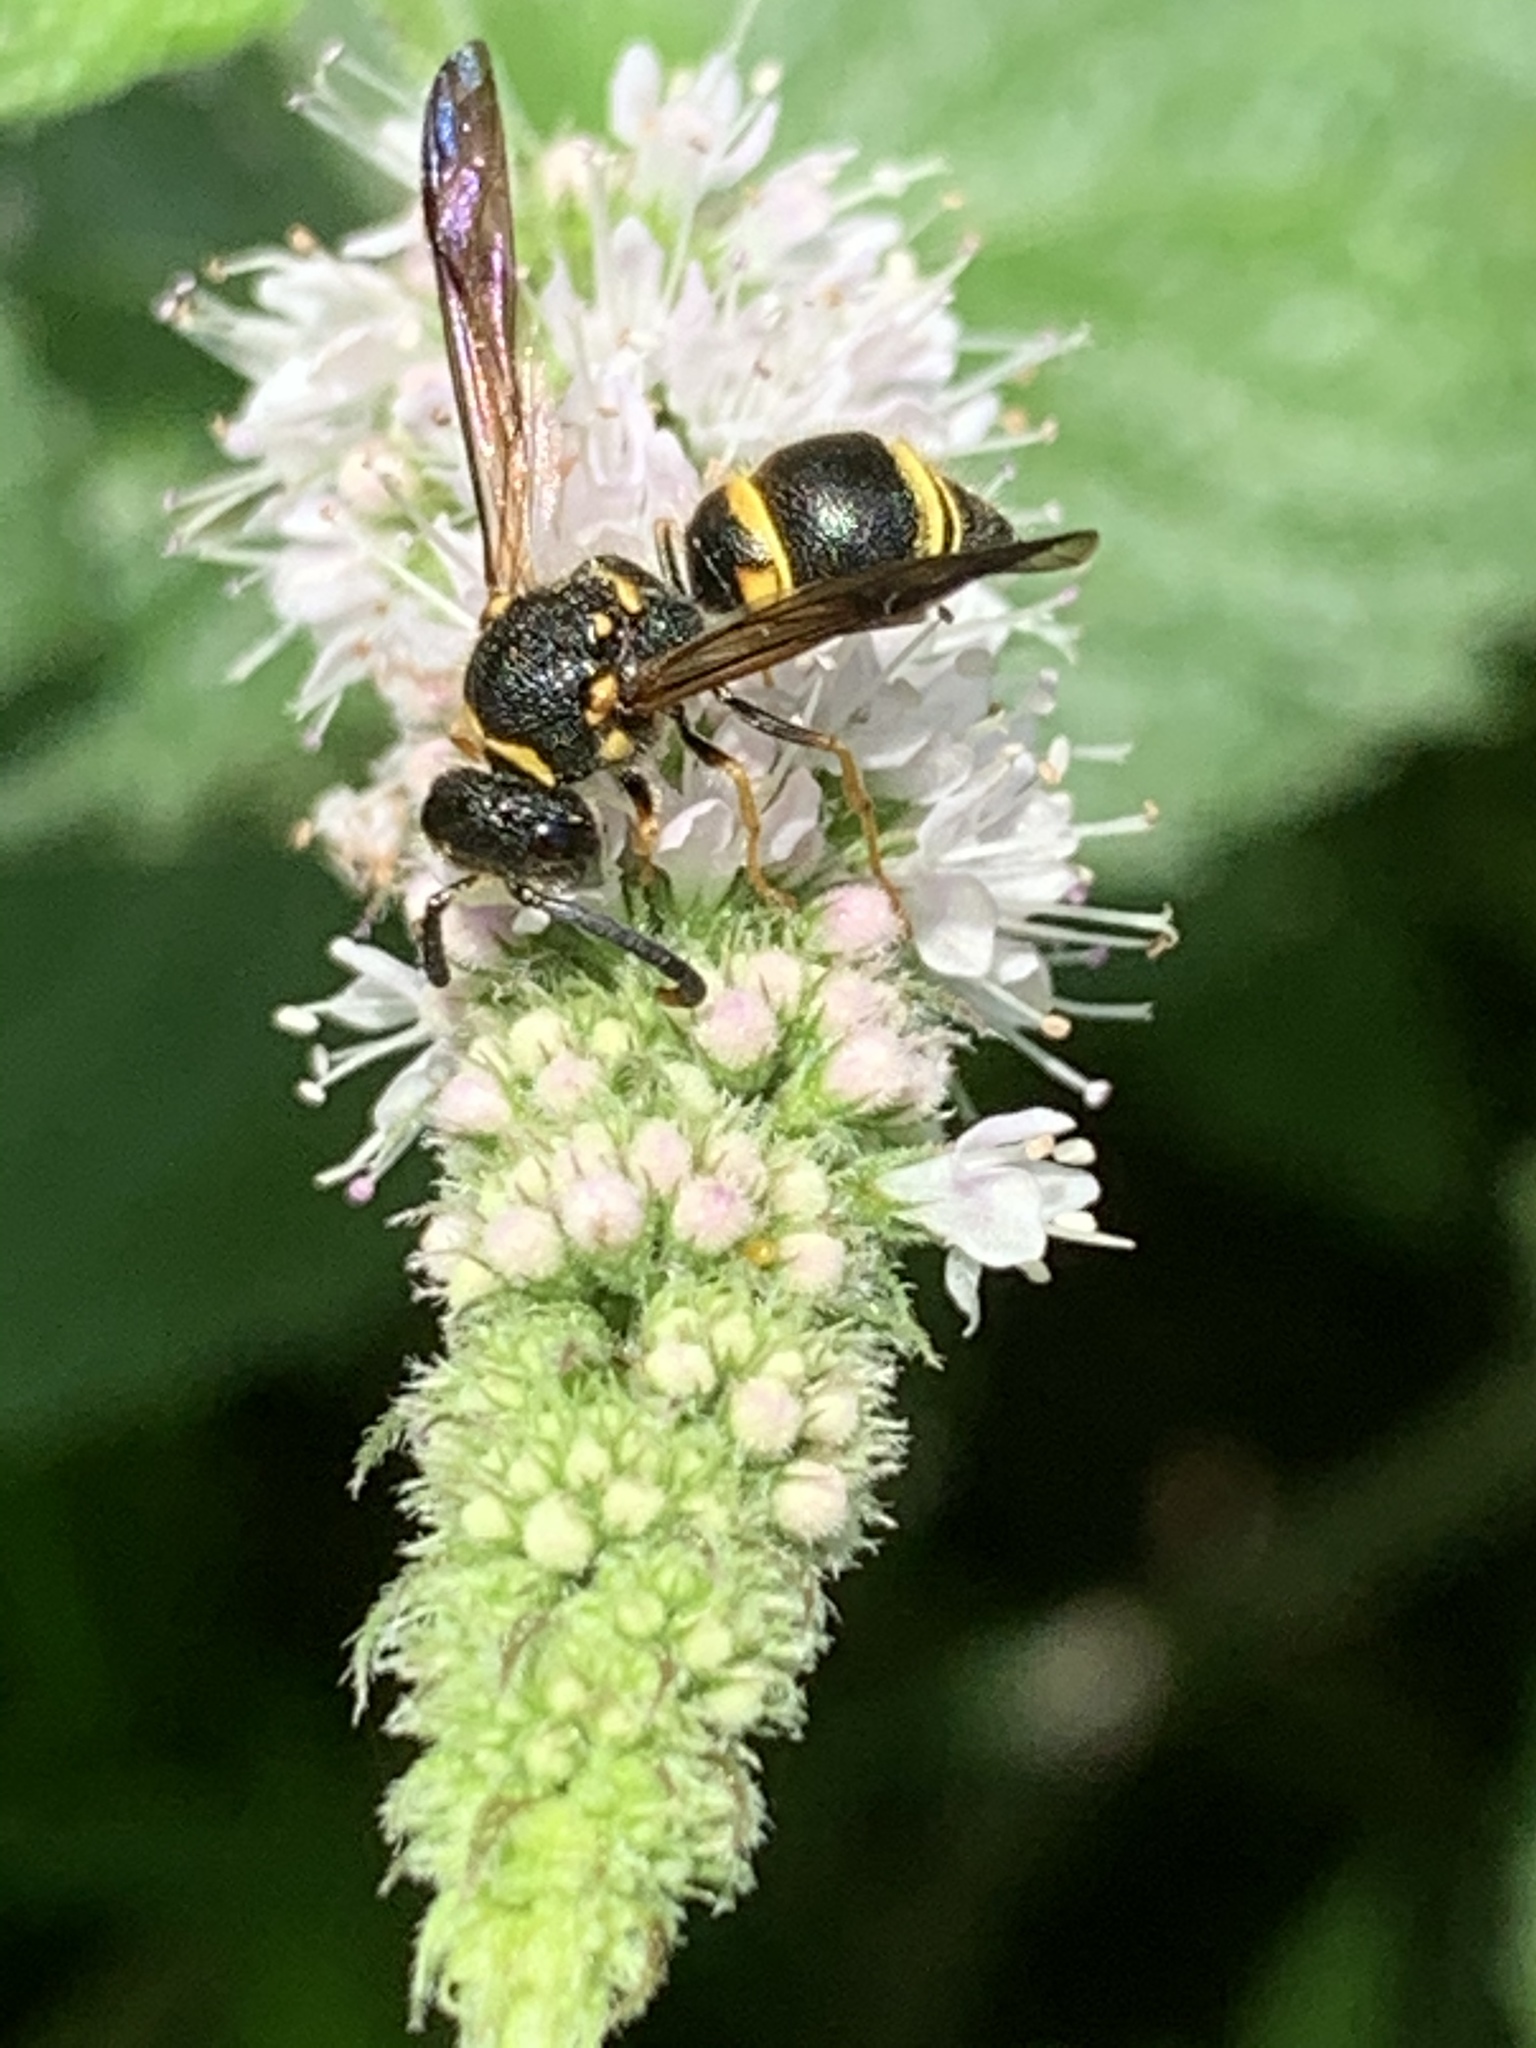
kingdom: Animalia
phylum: Arthropoda
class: Insecta
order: Hymenoptera
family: Vespidae
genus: Ancistrocerus
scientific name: Ancistrocerus campestris
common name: Smiling mason wasp
